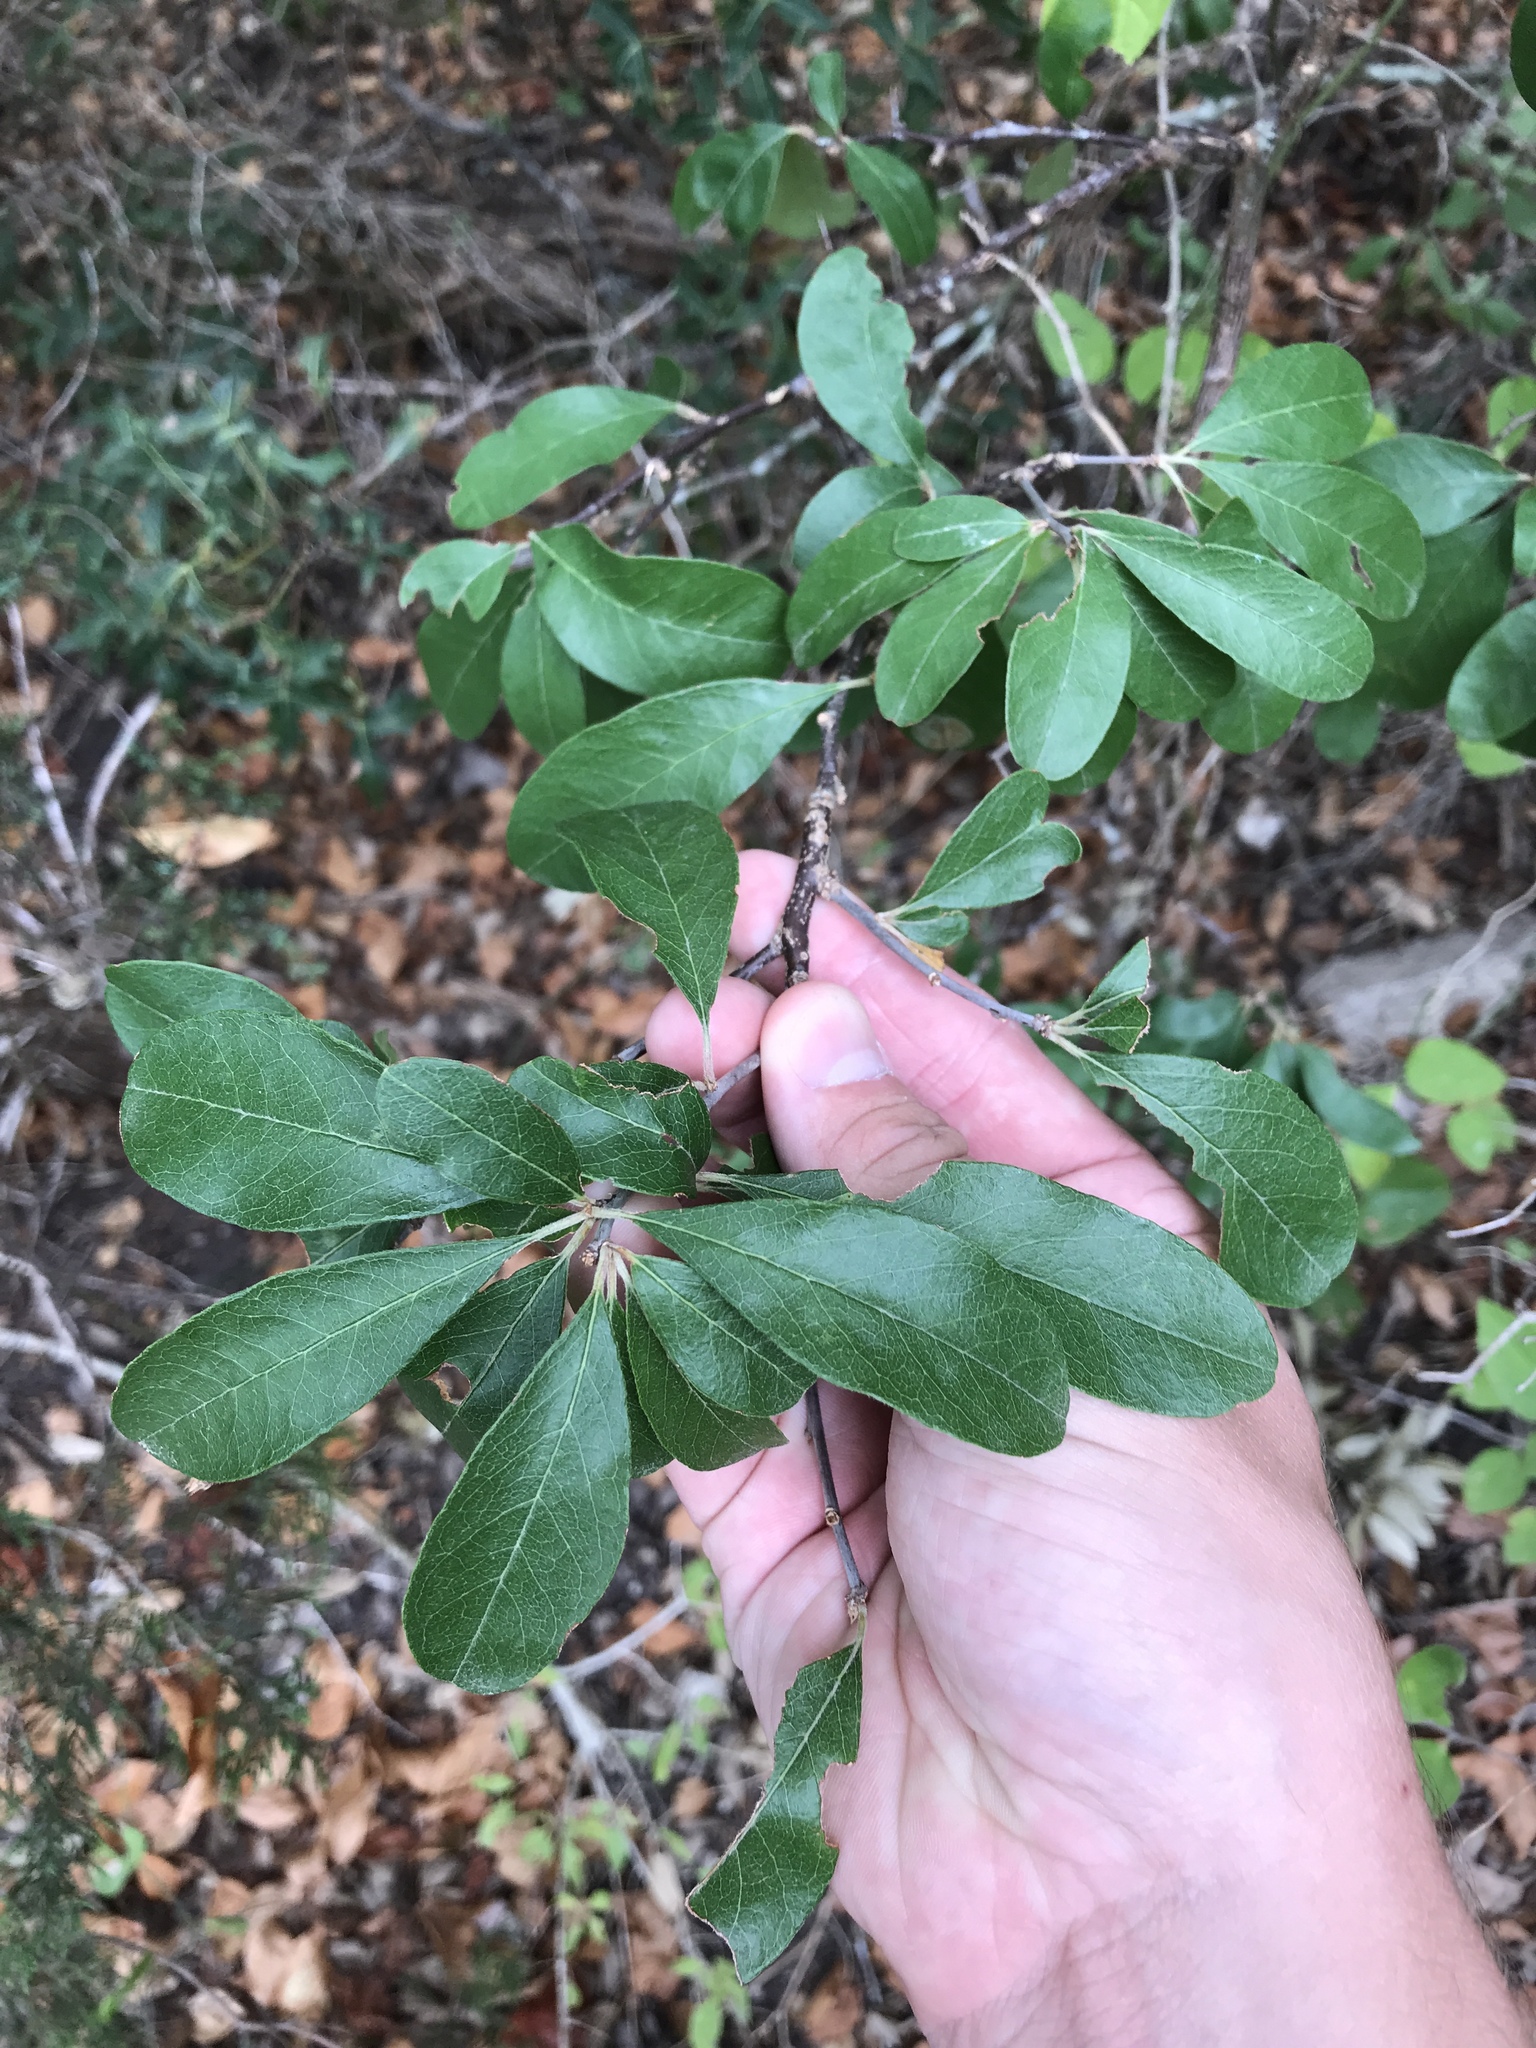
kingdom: Plantae
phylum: Tracheophyta
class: Magnoliopsida
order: Ericales
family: Sapotaceae
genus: Sideroxylon
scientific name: Sideroxylon lanuginosum
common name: Chittamwood
